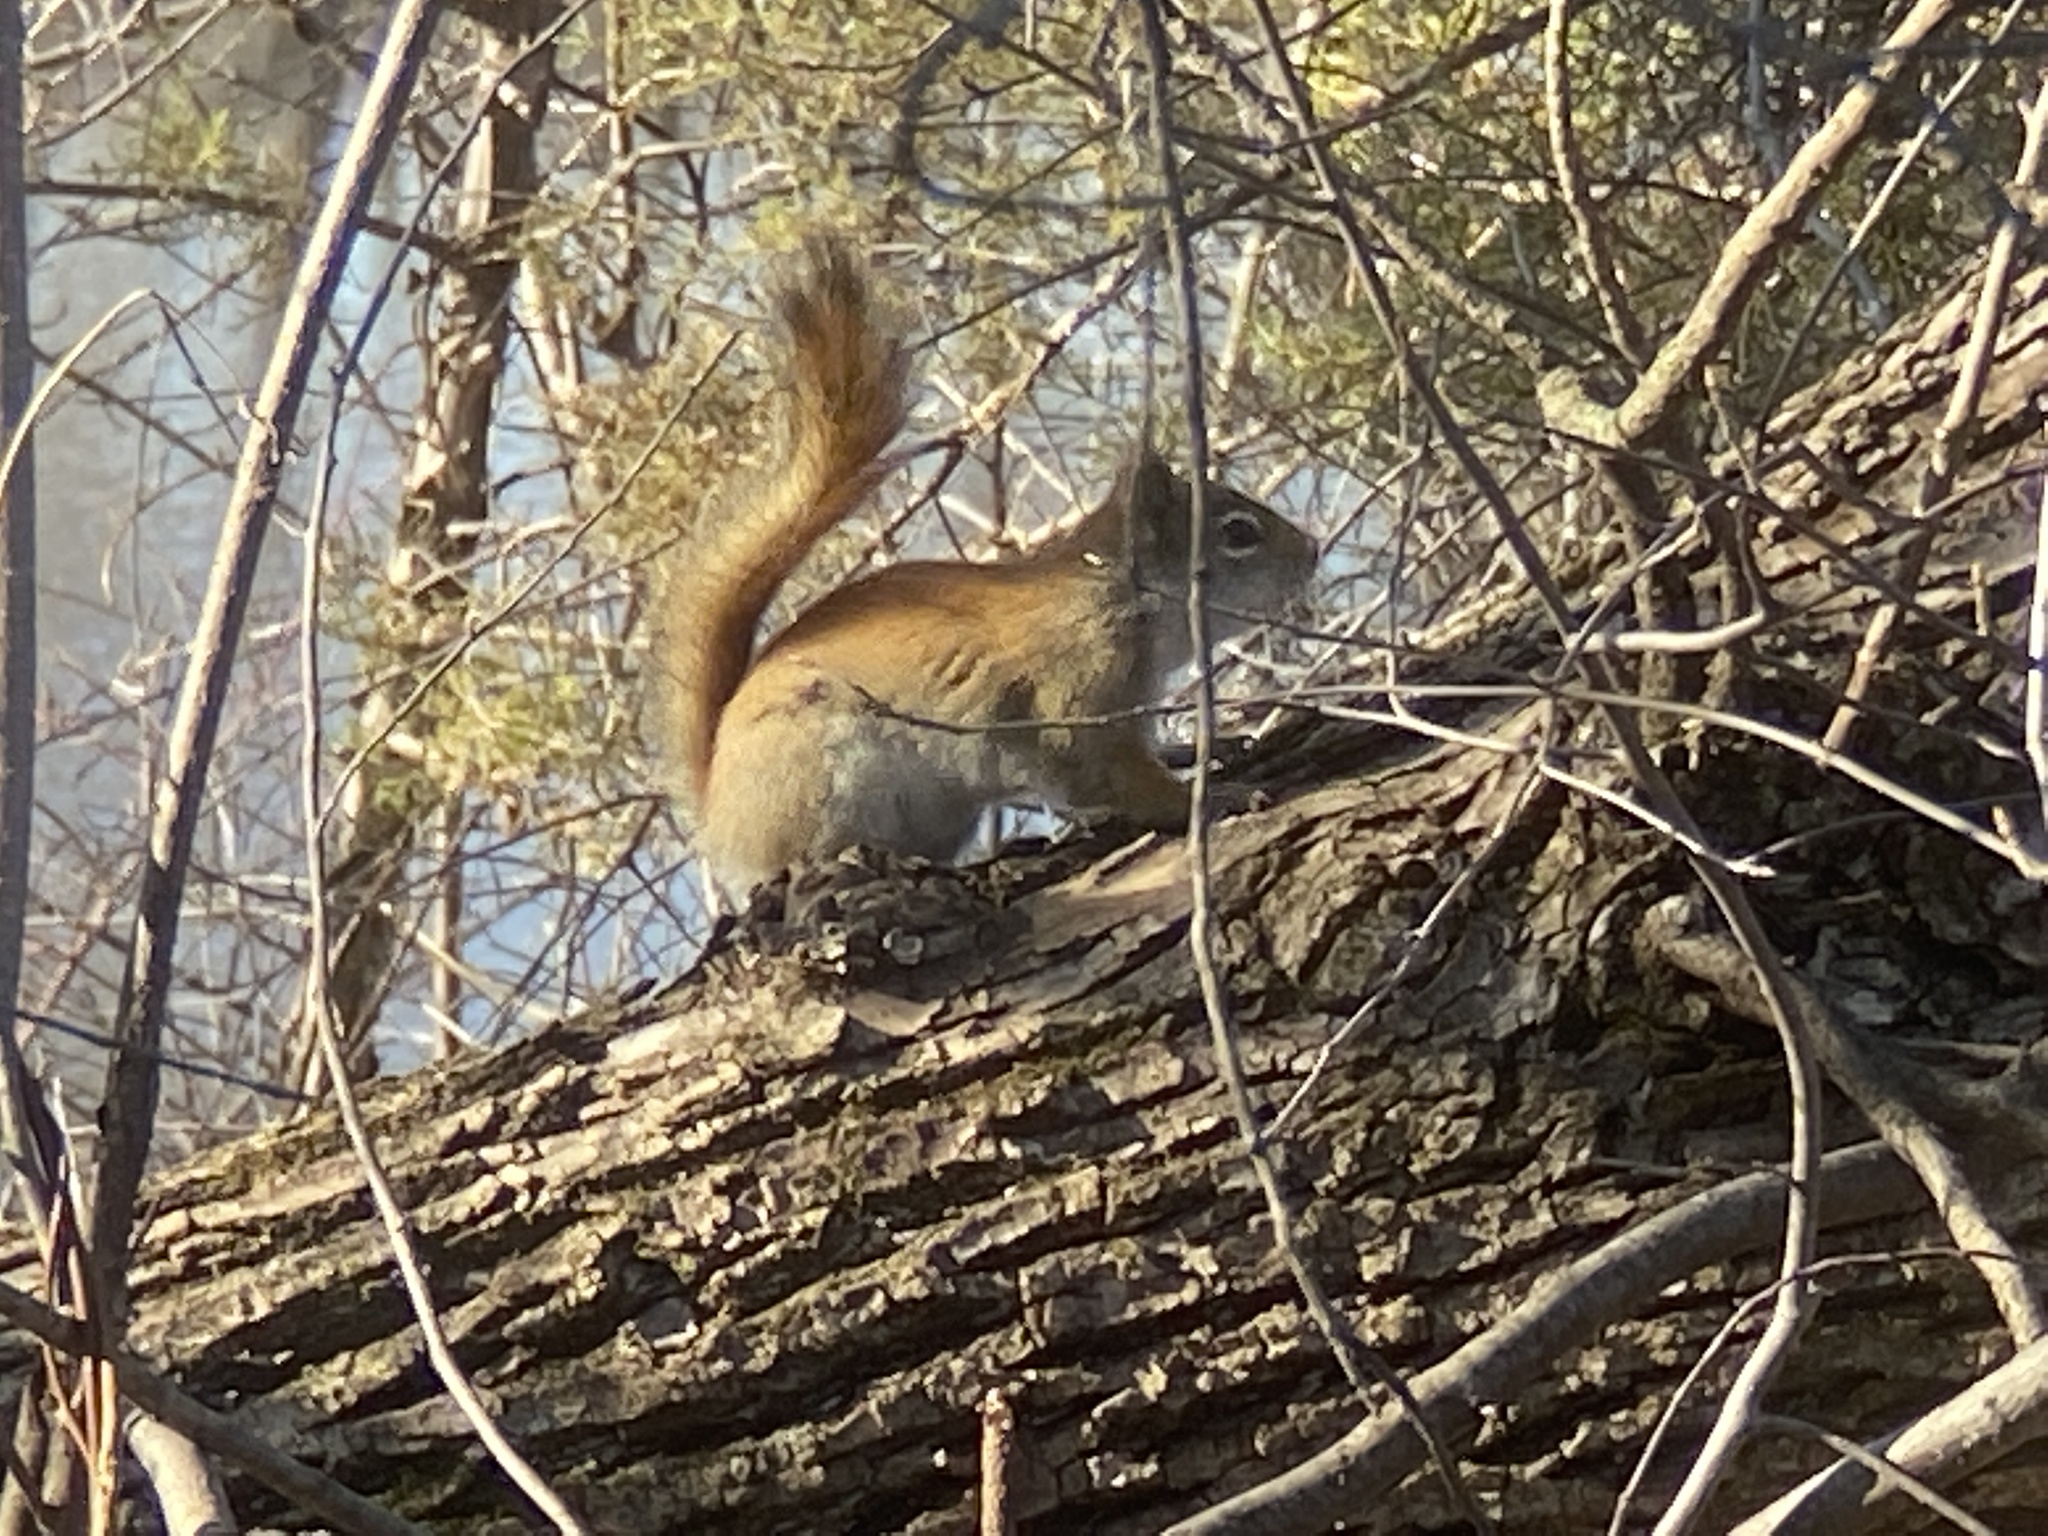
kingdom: Animalia
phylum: Chordata
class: Mammalia
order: Rodentia
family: Sciuridae
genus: Tamiasciurus
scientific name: Tamiasciurus hudsonicus
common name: Red squirrel
